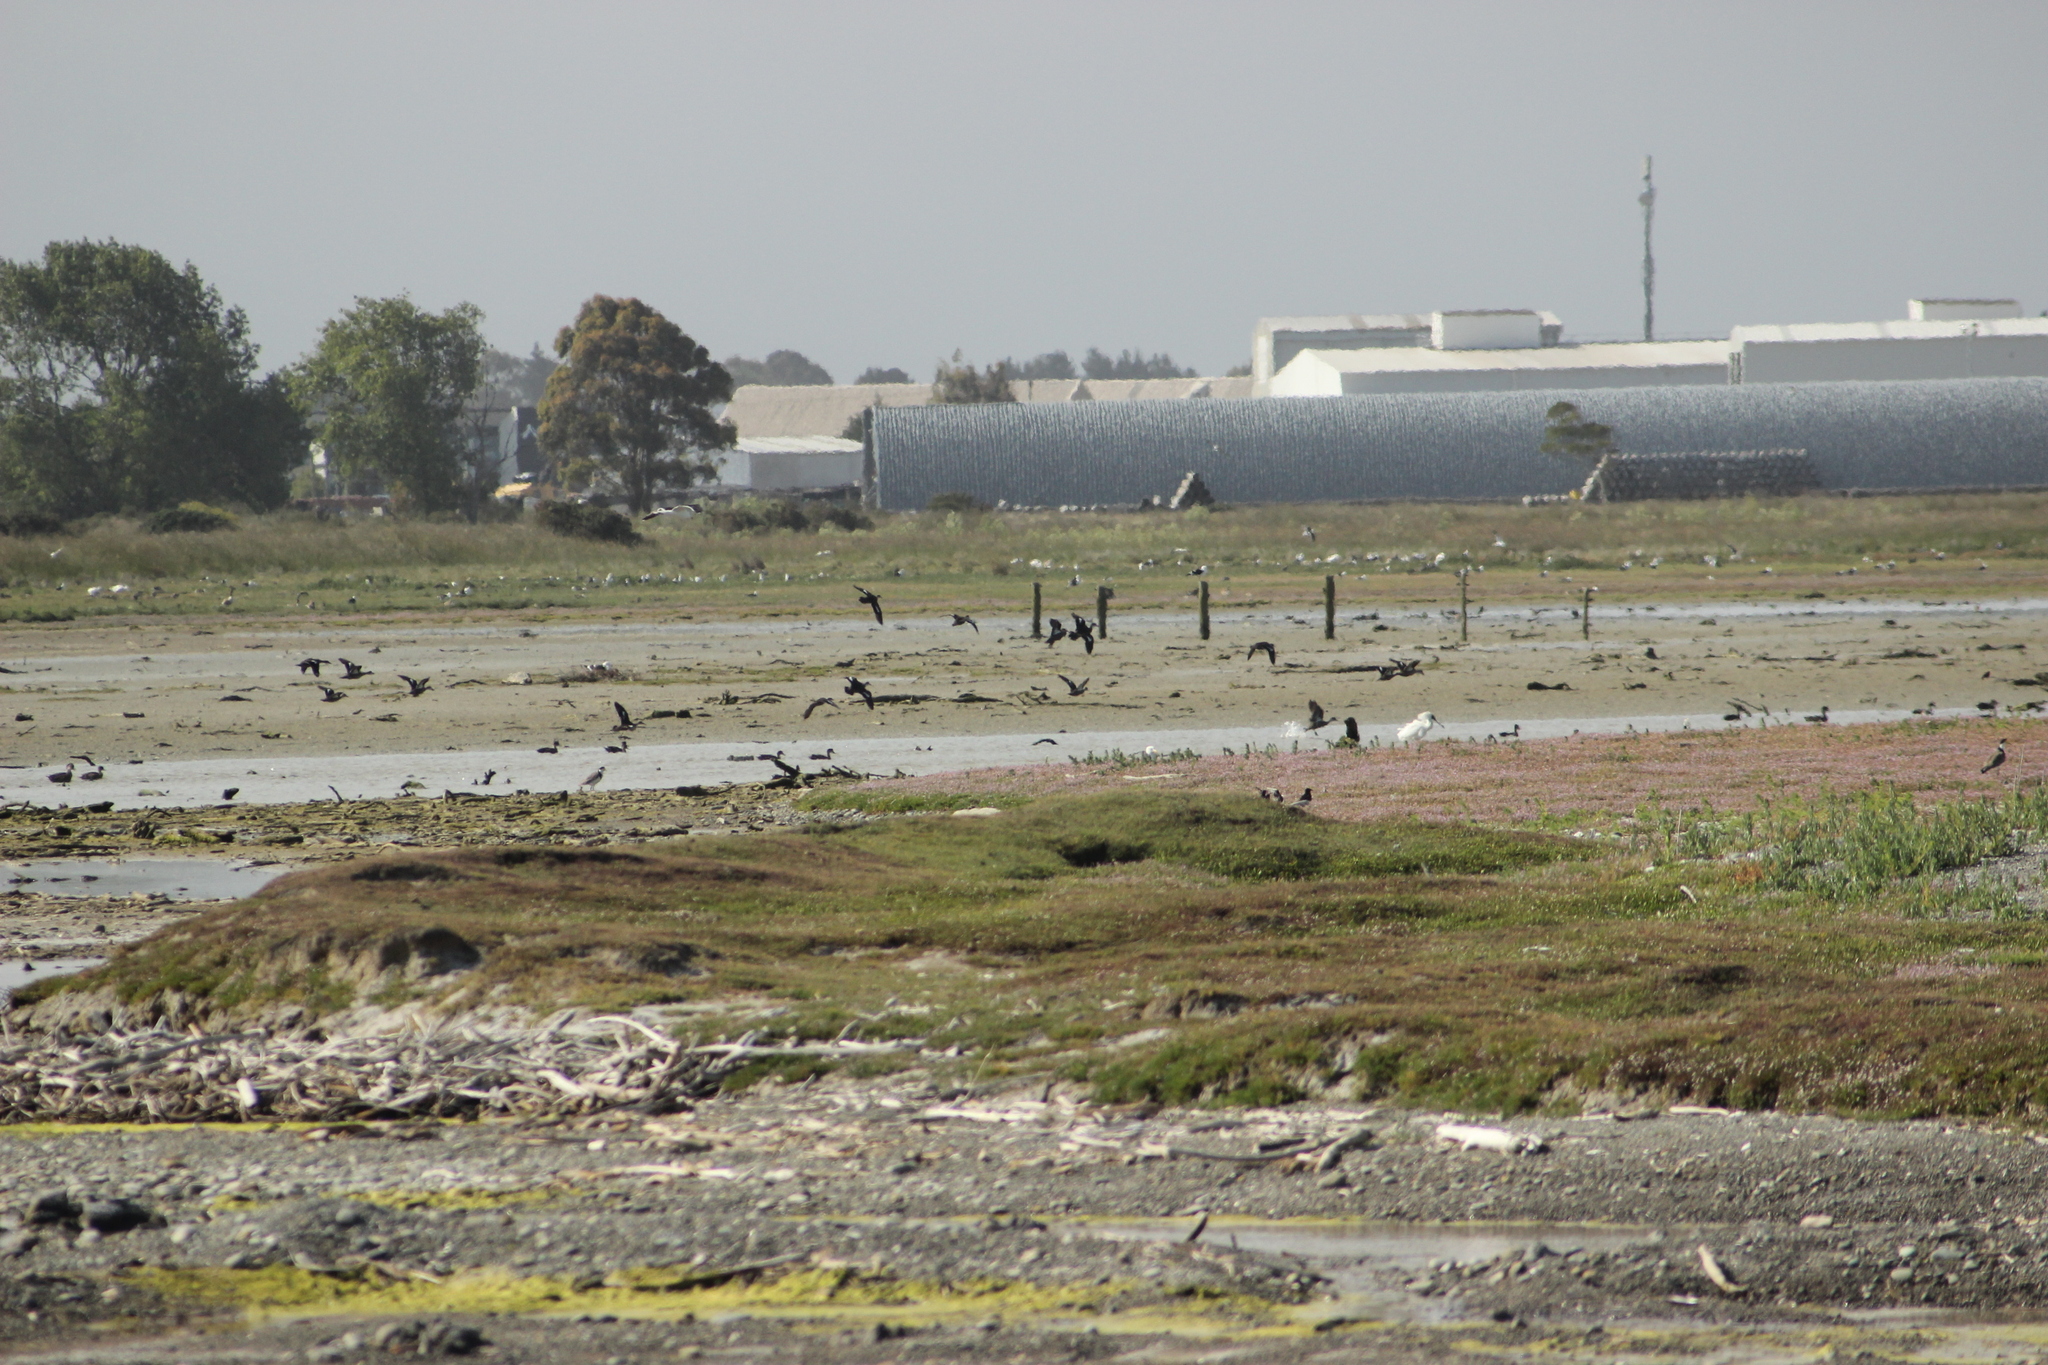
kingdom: Animalia
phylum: Chordata
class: Aves
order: Anseriformes
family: Anatidae
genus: Anas
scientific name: Anas gracilis
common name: Grey teal
